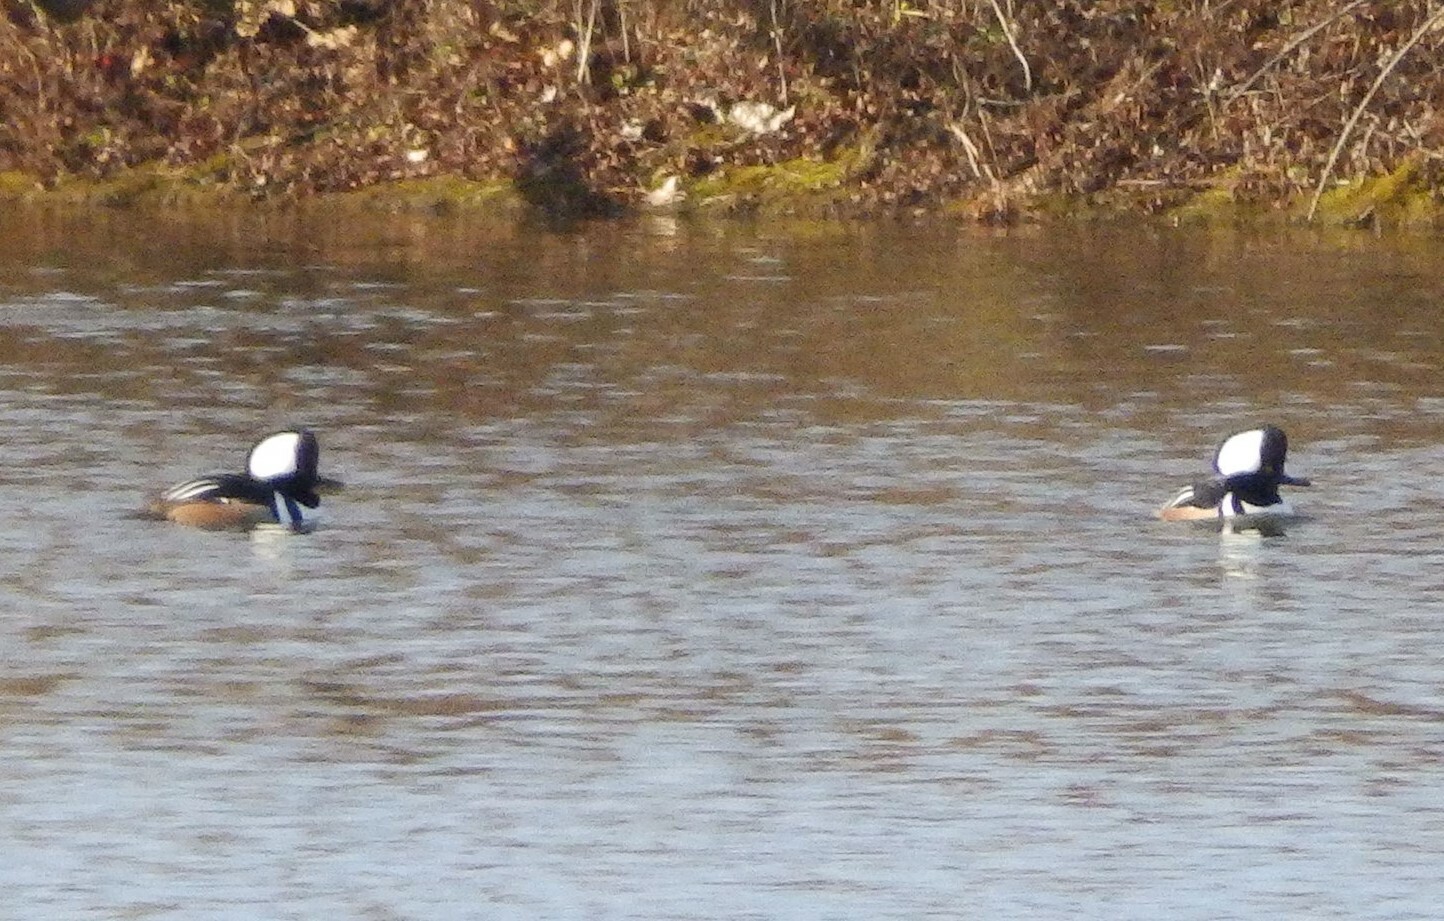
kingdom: Animalia
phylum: Chordata
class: Aves
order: Anseriformes
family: Anatidae
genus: Lophodytes
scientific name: Lophodytes cucullatus
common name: Hooded merganser
